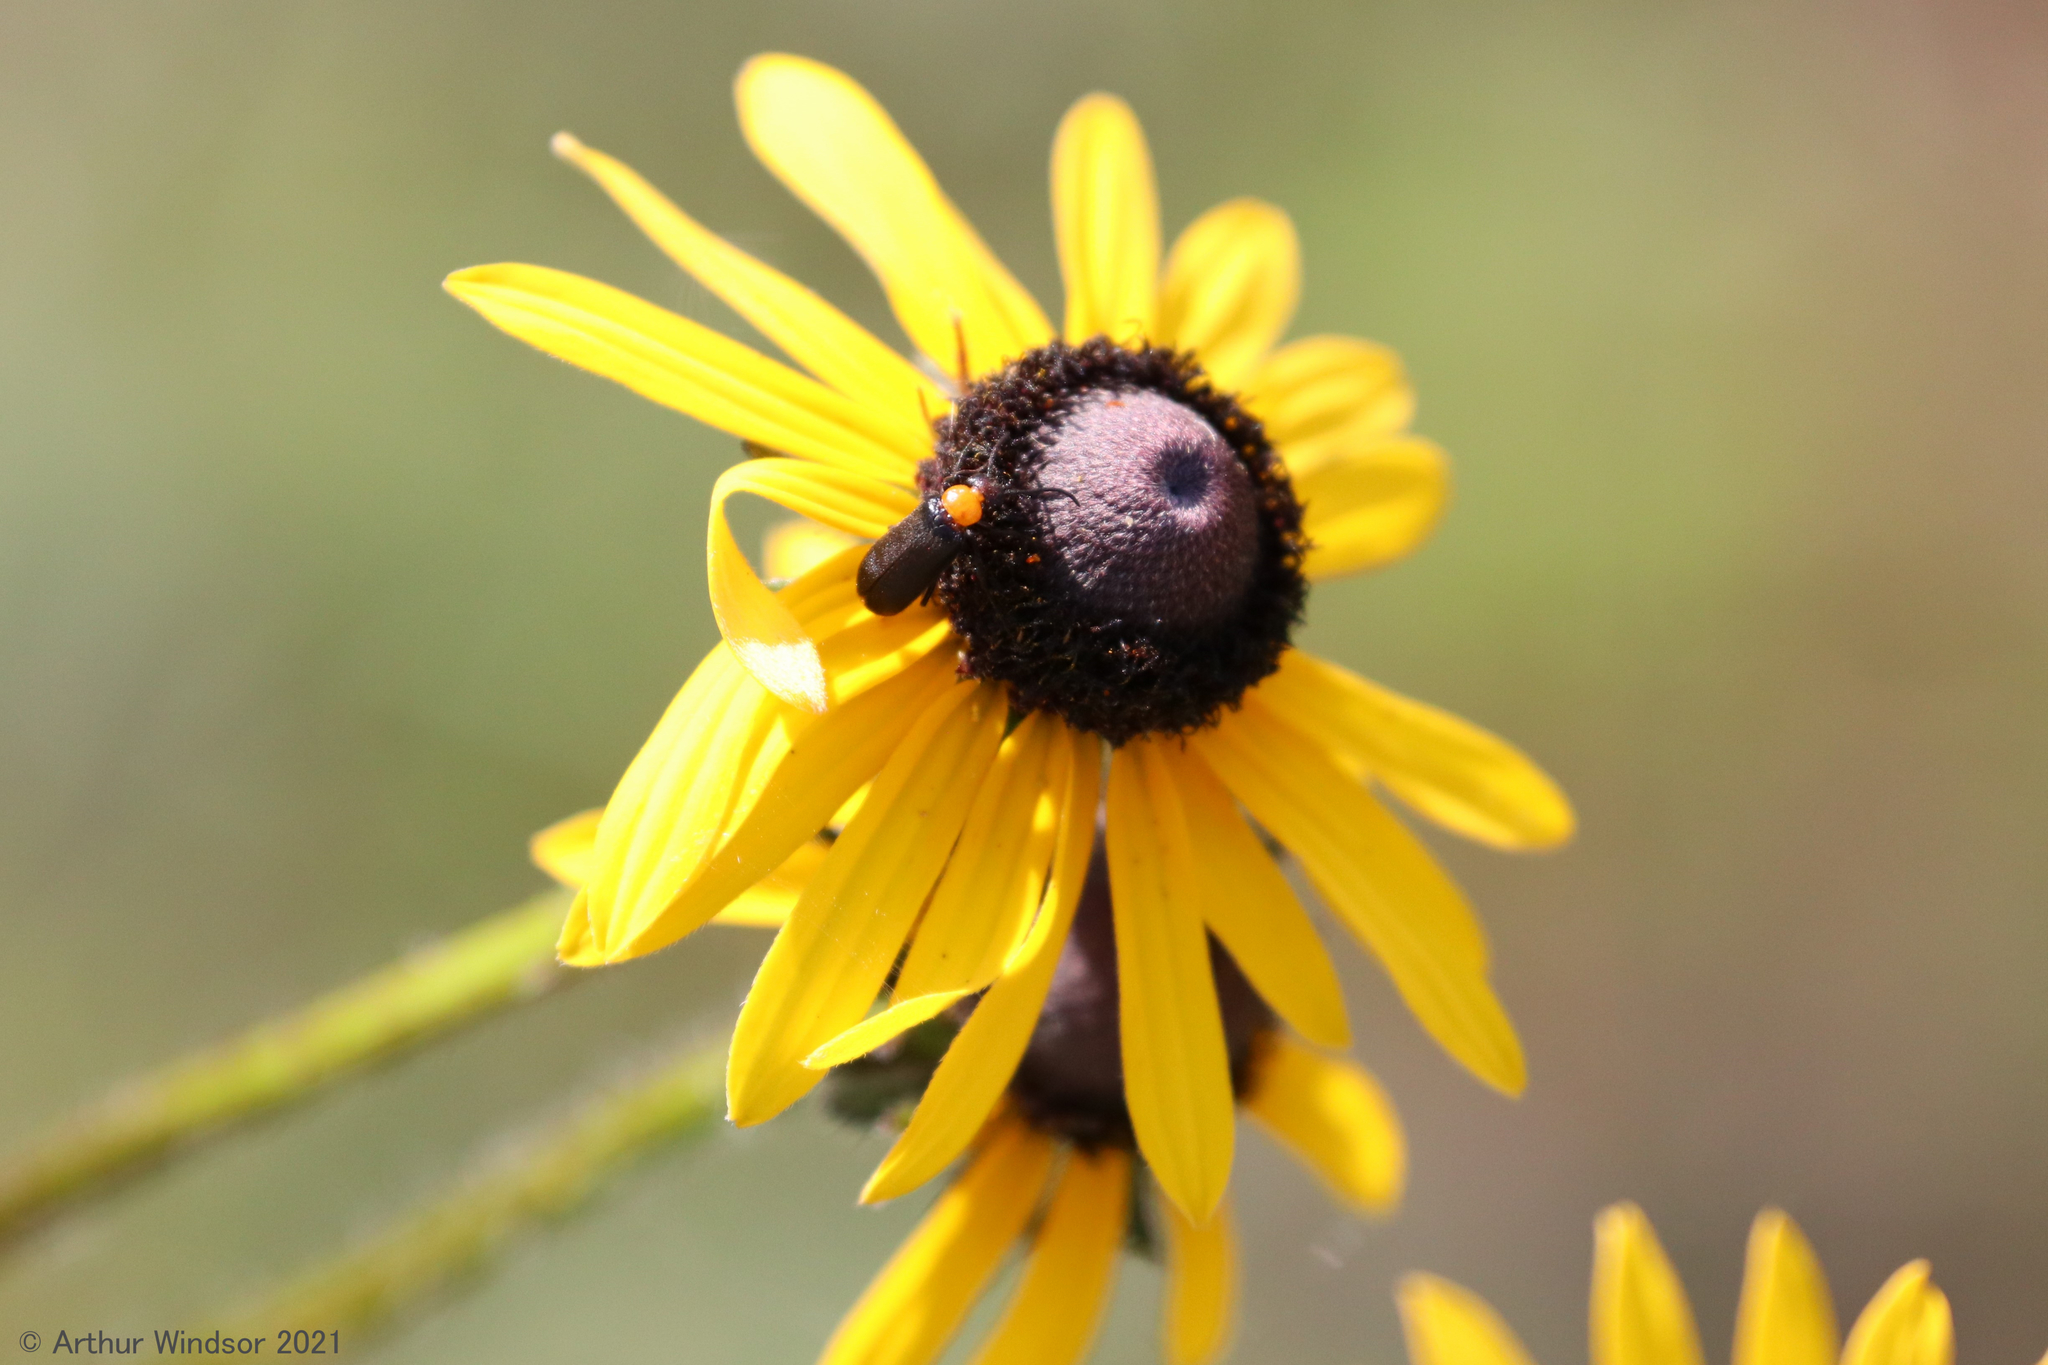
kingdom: Animalia
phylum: Arthropoda
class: Insecta
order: Coleoptera
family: Meloidae
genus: Nemognatha
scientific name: Nemognatha nemorensis
